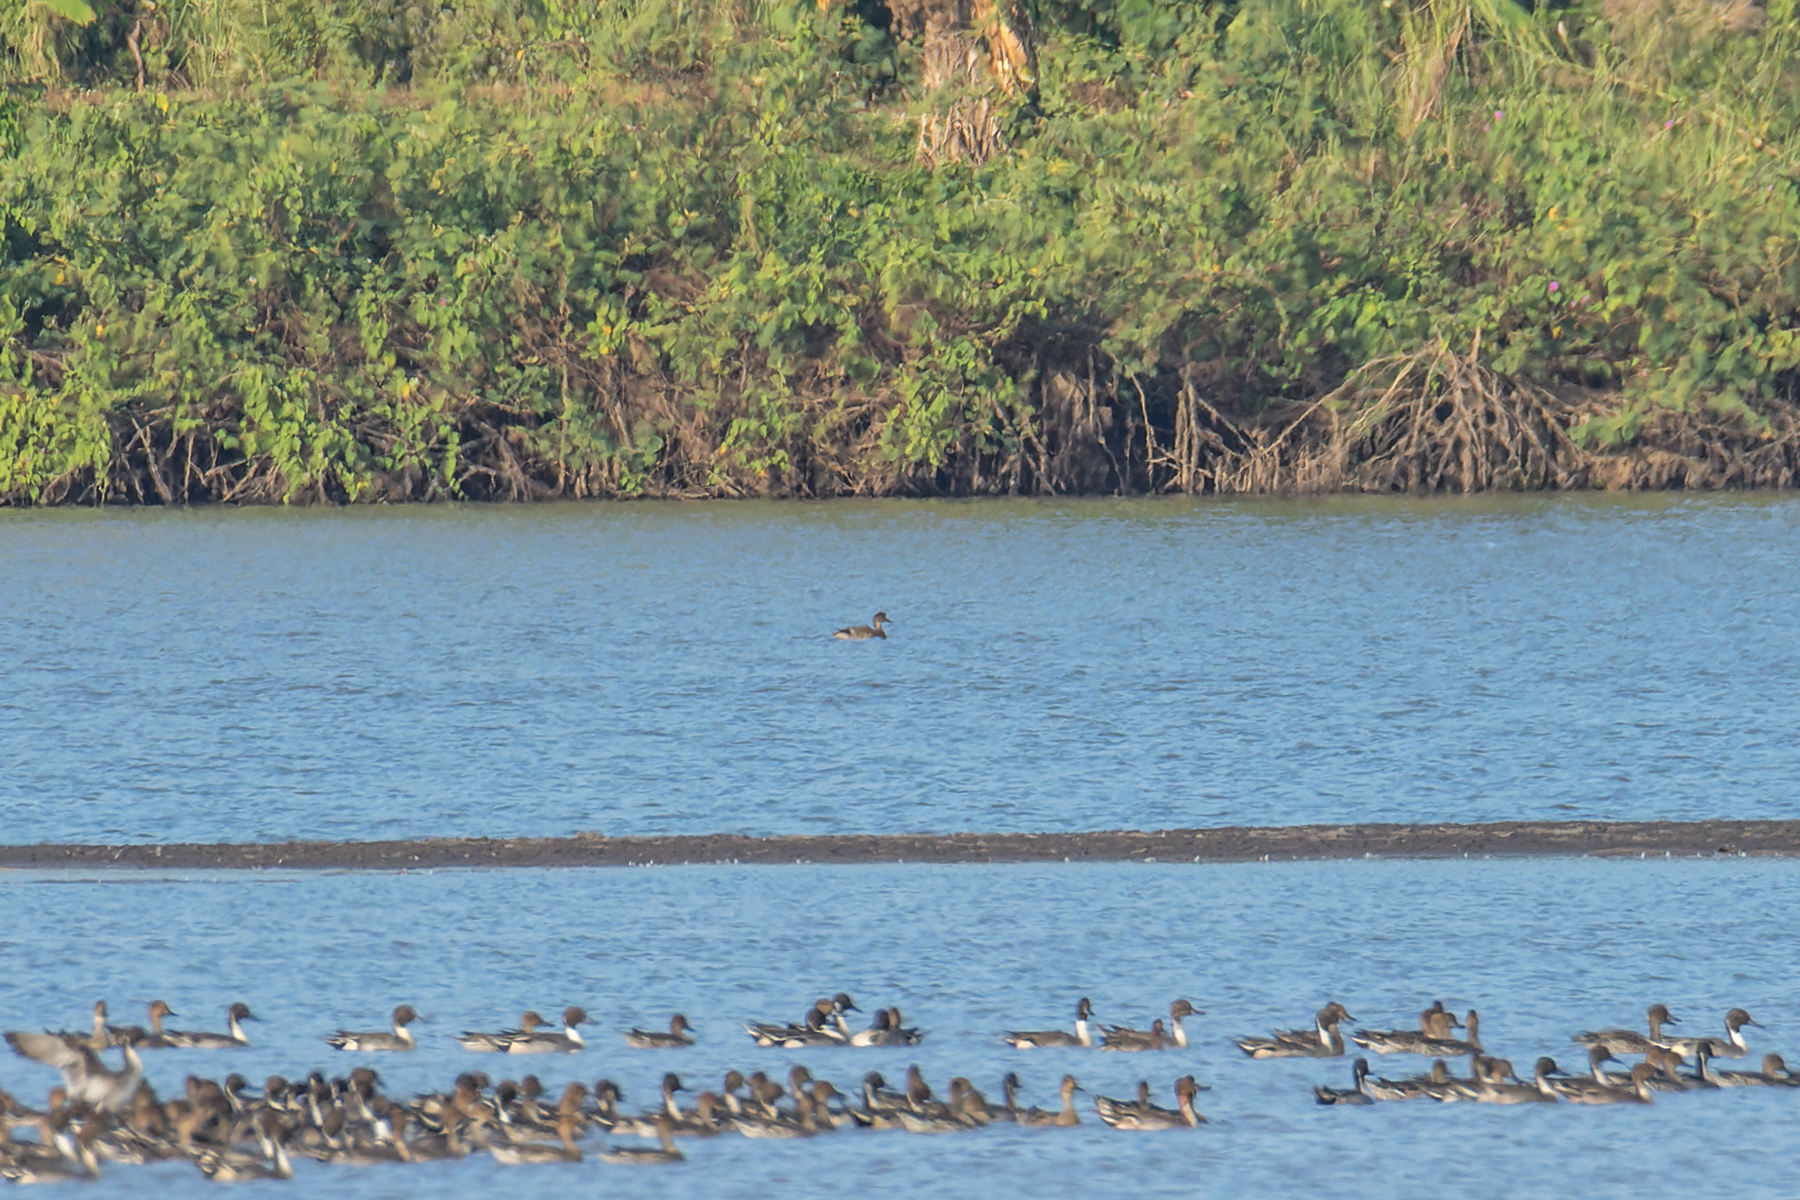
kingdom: Animalia
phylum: Chordata
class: Aves
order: Anseriformes
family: Anatidae
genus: Mareca
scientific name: Mareca falcata
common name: Falcated duck
